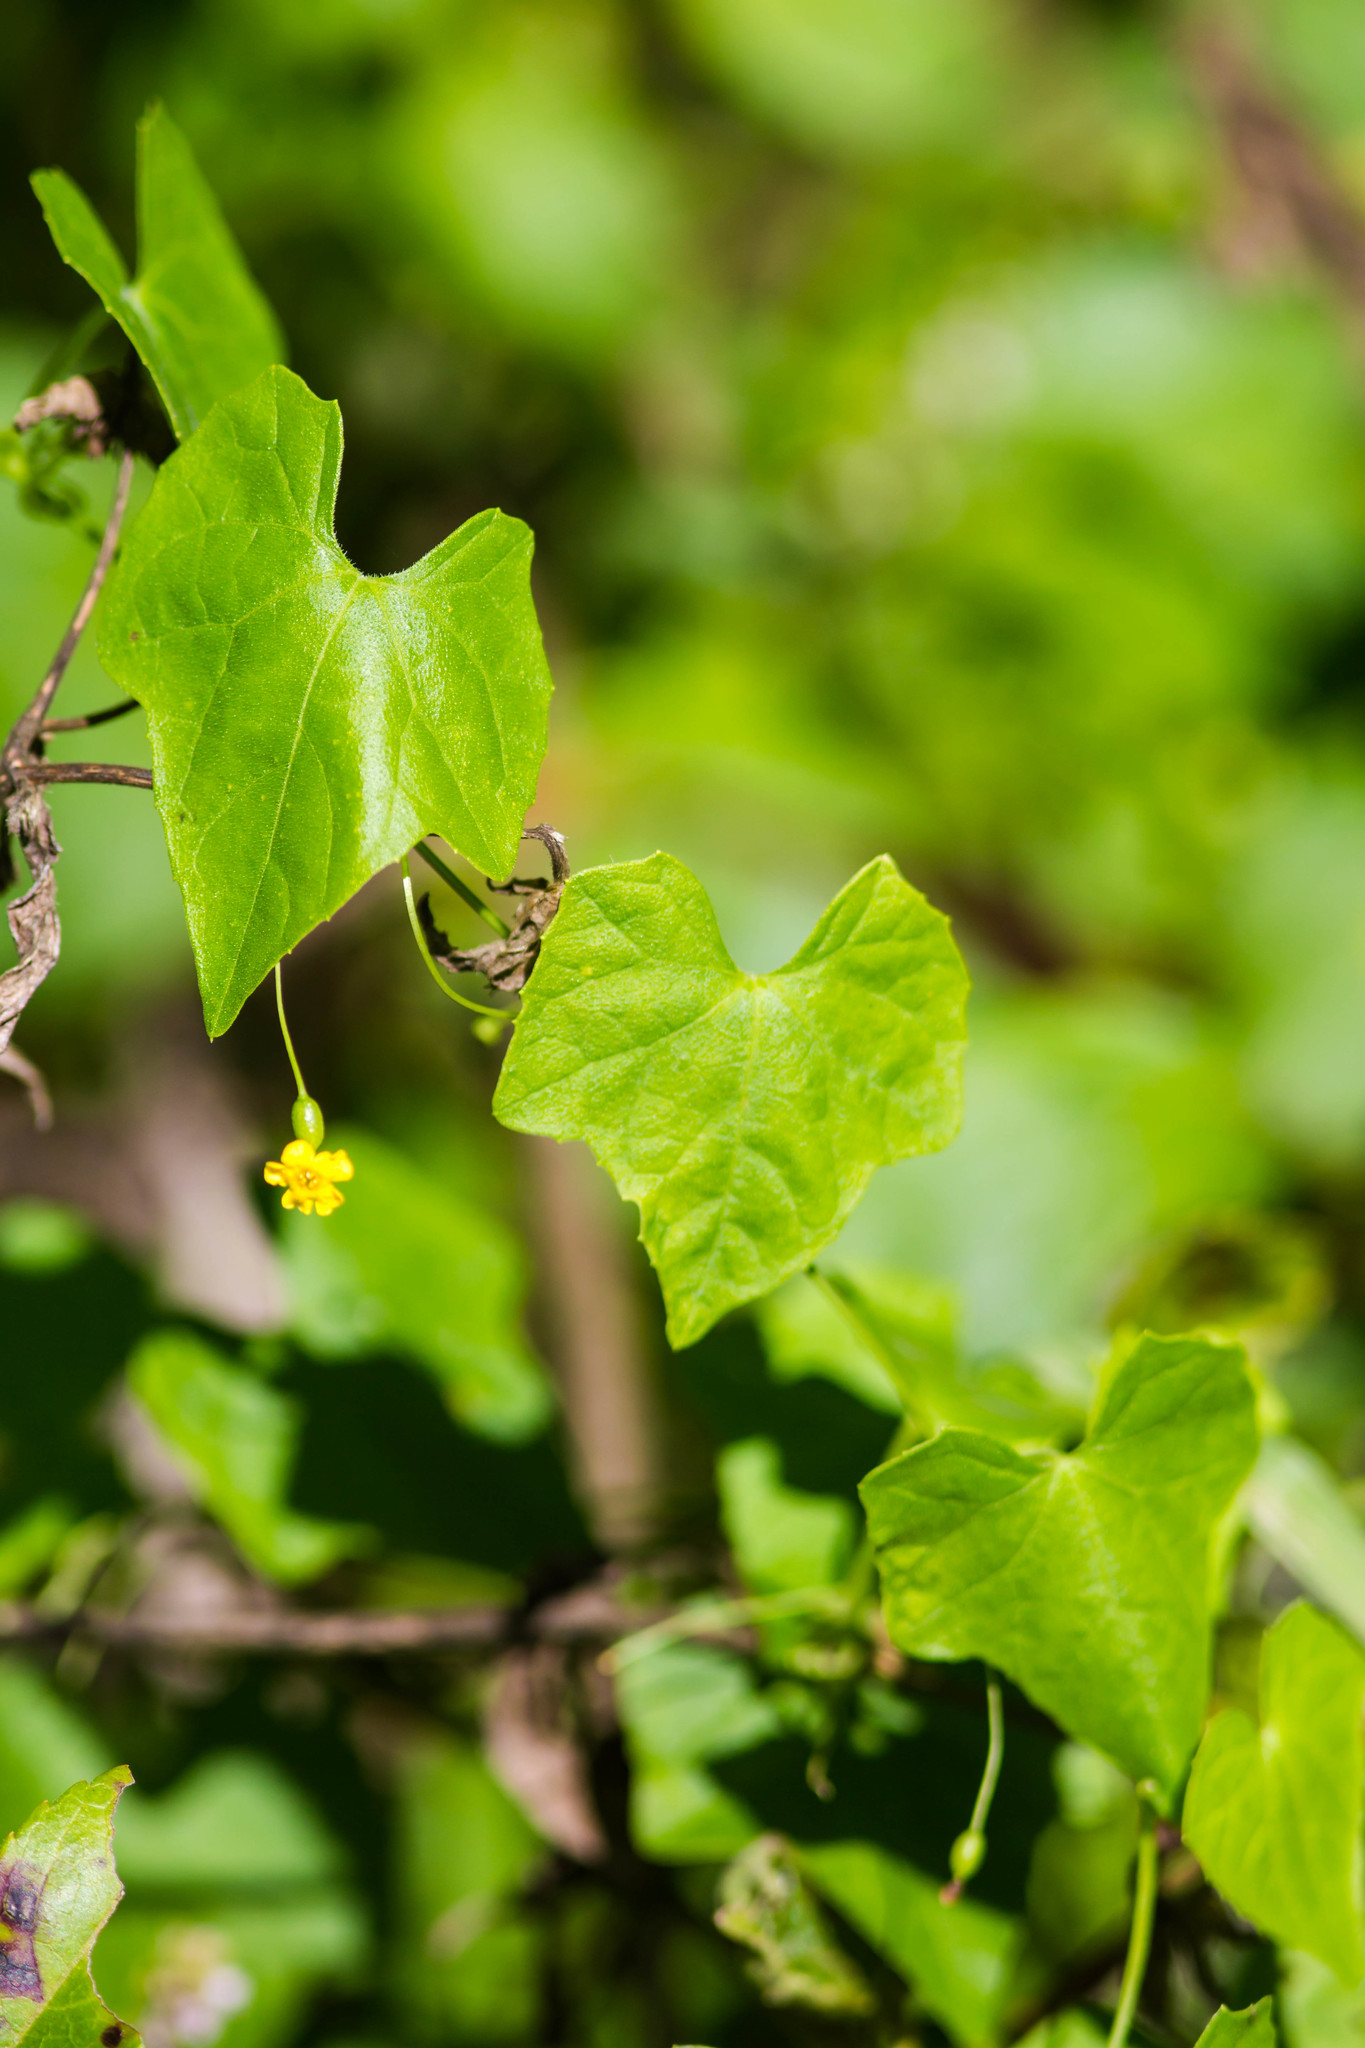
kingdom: Plantae
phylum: Tracheophyta
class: Magnoliopsida
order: Cucurbitales
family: Cucurbitaceae
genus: Melothria
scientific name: Melothria pendula
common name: Creeping-cucumber
